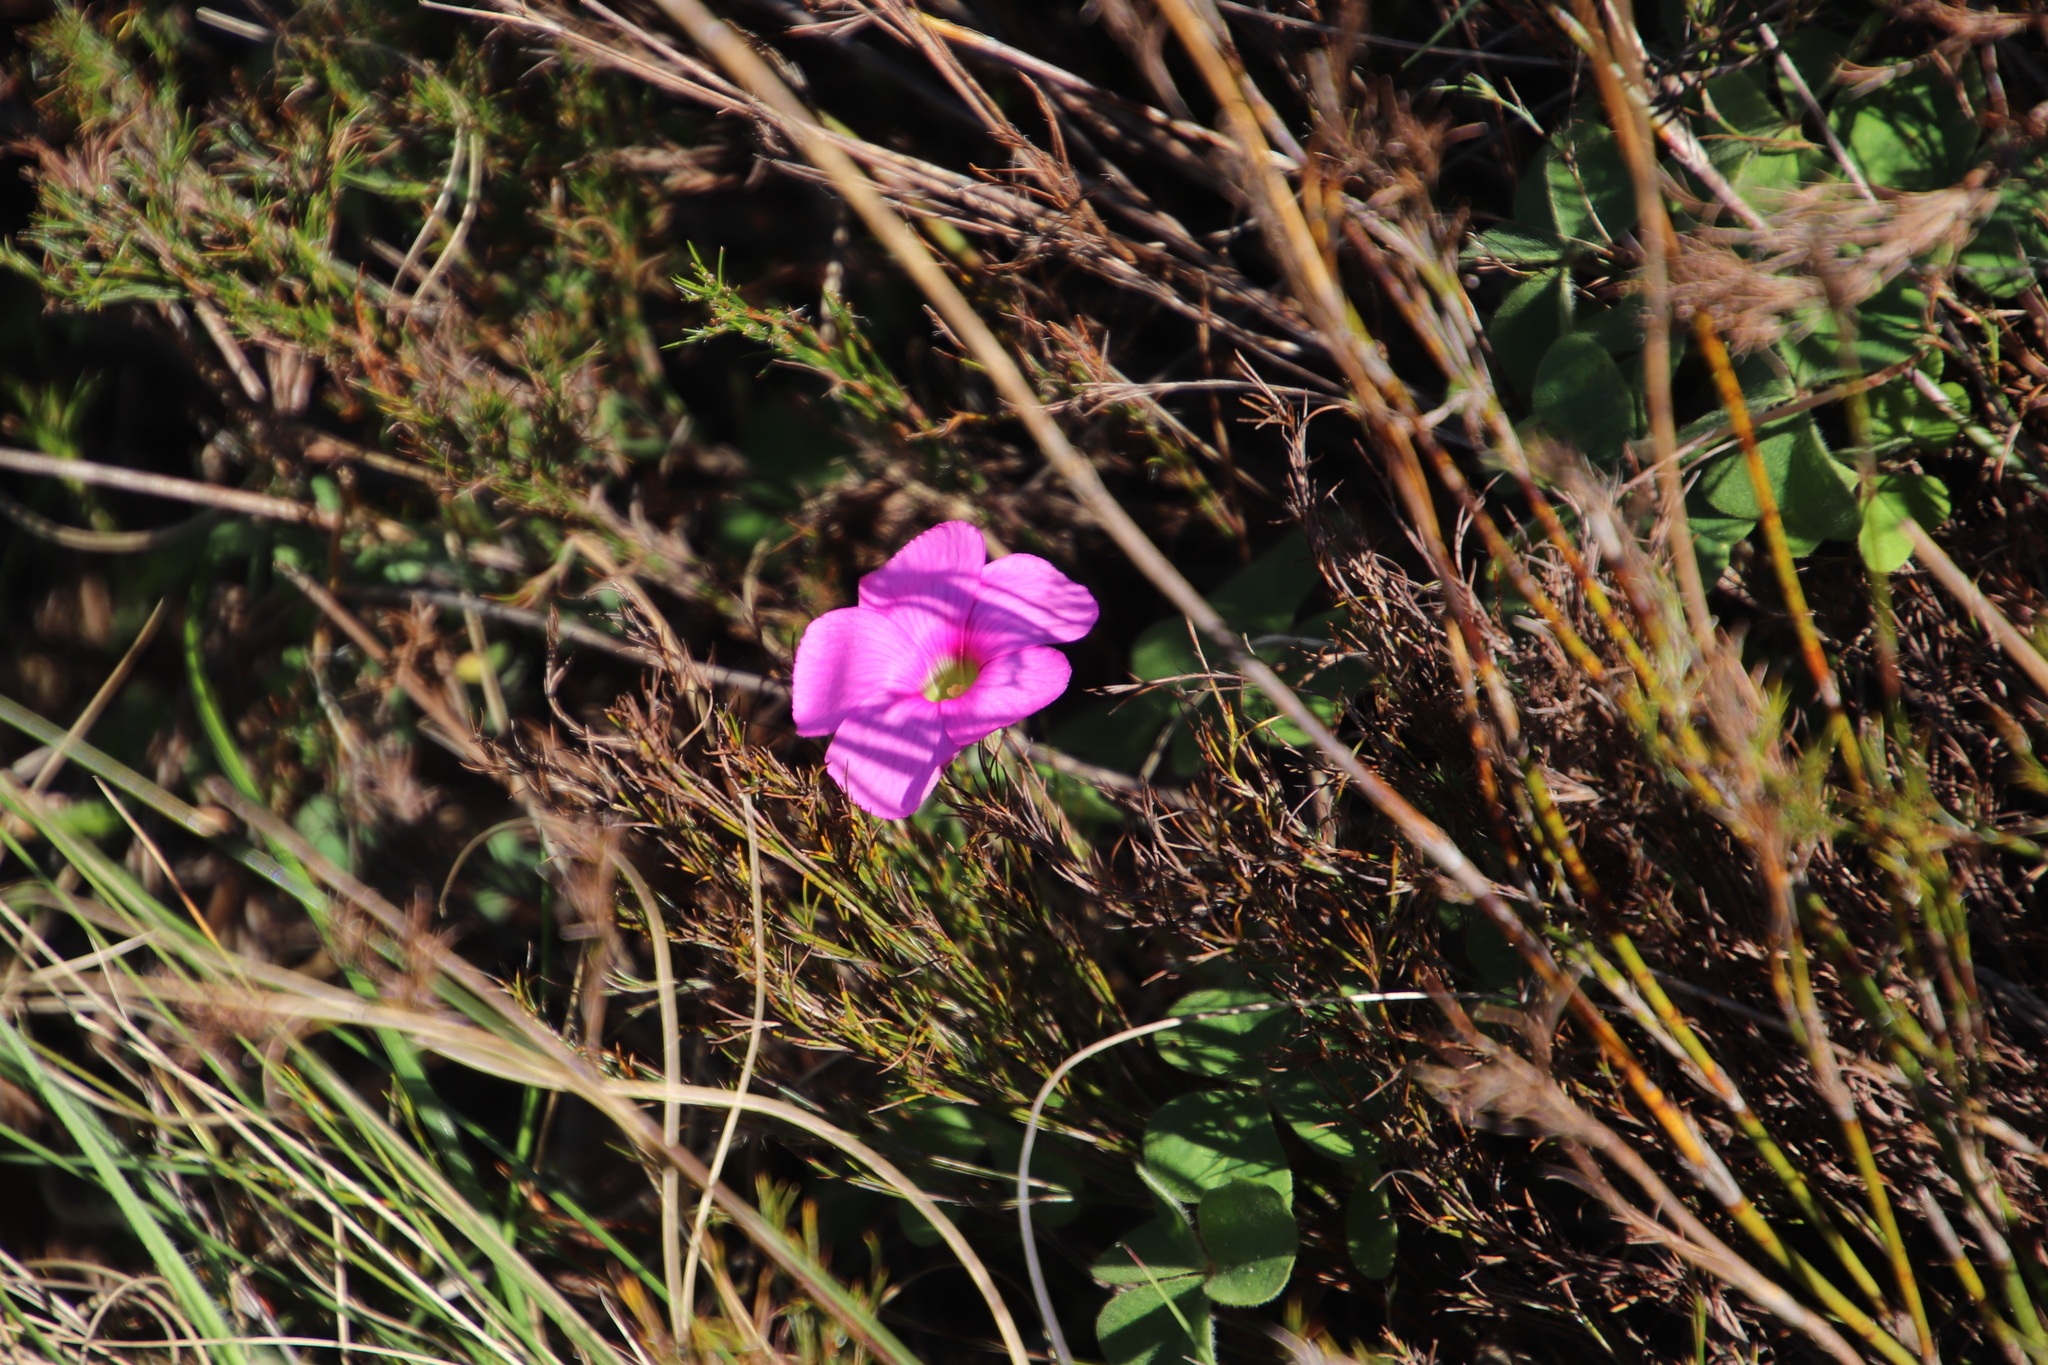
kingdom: Plantae
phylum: Tracheophyta
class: Magnoliopsida
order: Oxalidales
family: Oxalidaceae
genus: Oxalis
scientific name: Oxalis lanata
